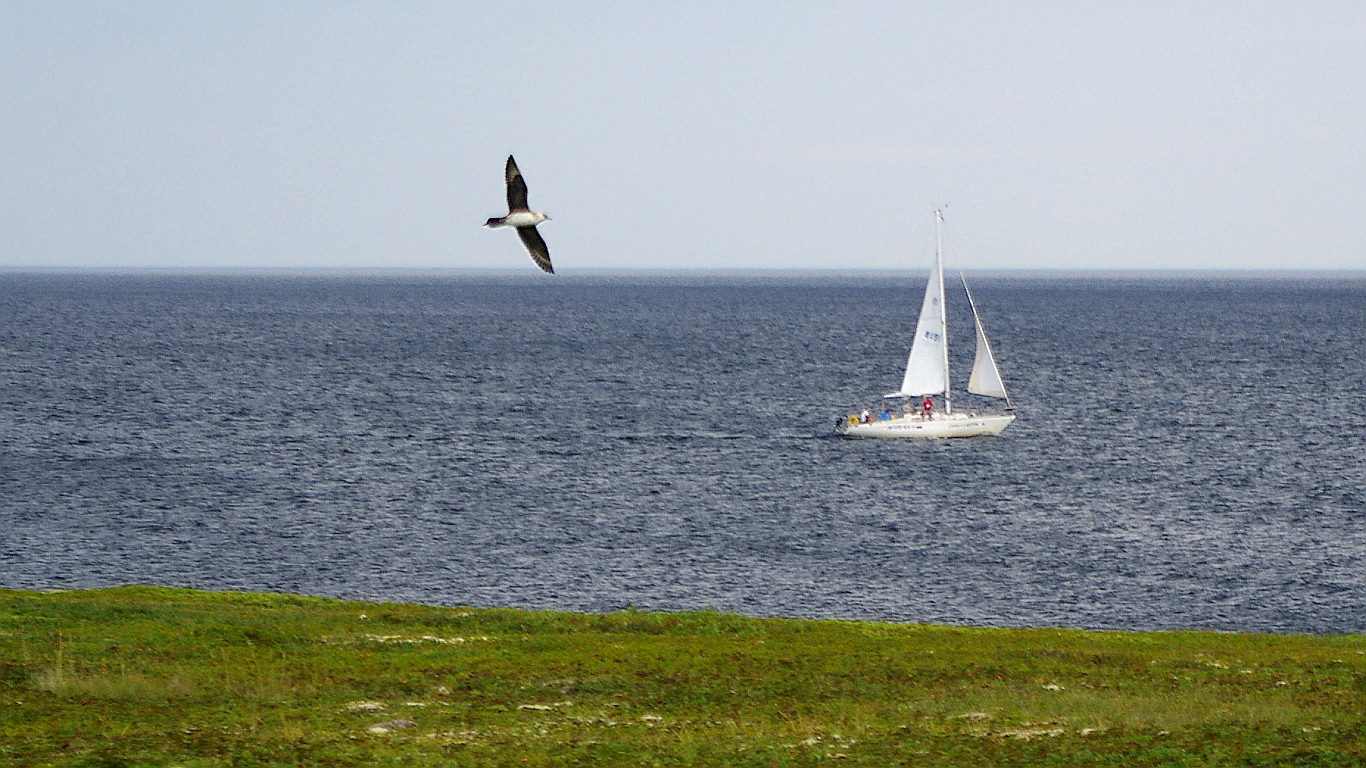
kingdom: Animalia
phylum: Chordata
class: Aves
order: Charadriiformes
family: Stercorariidae
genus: Stercorarius
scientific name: Stercorarius parasiticus
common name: Parasitic jaeger
